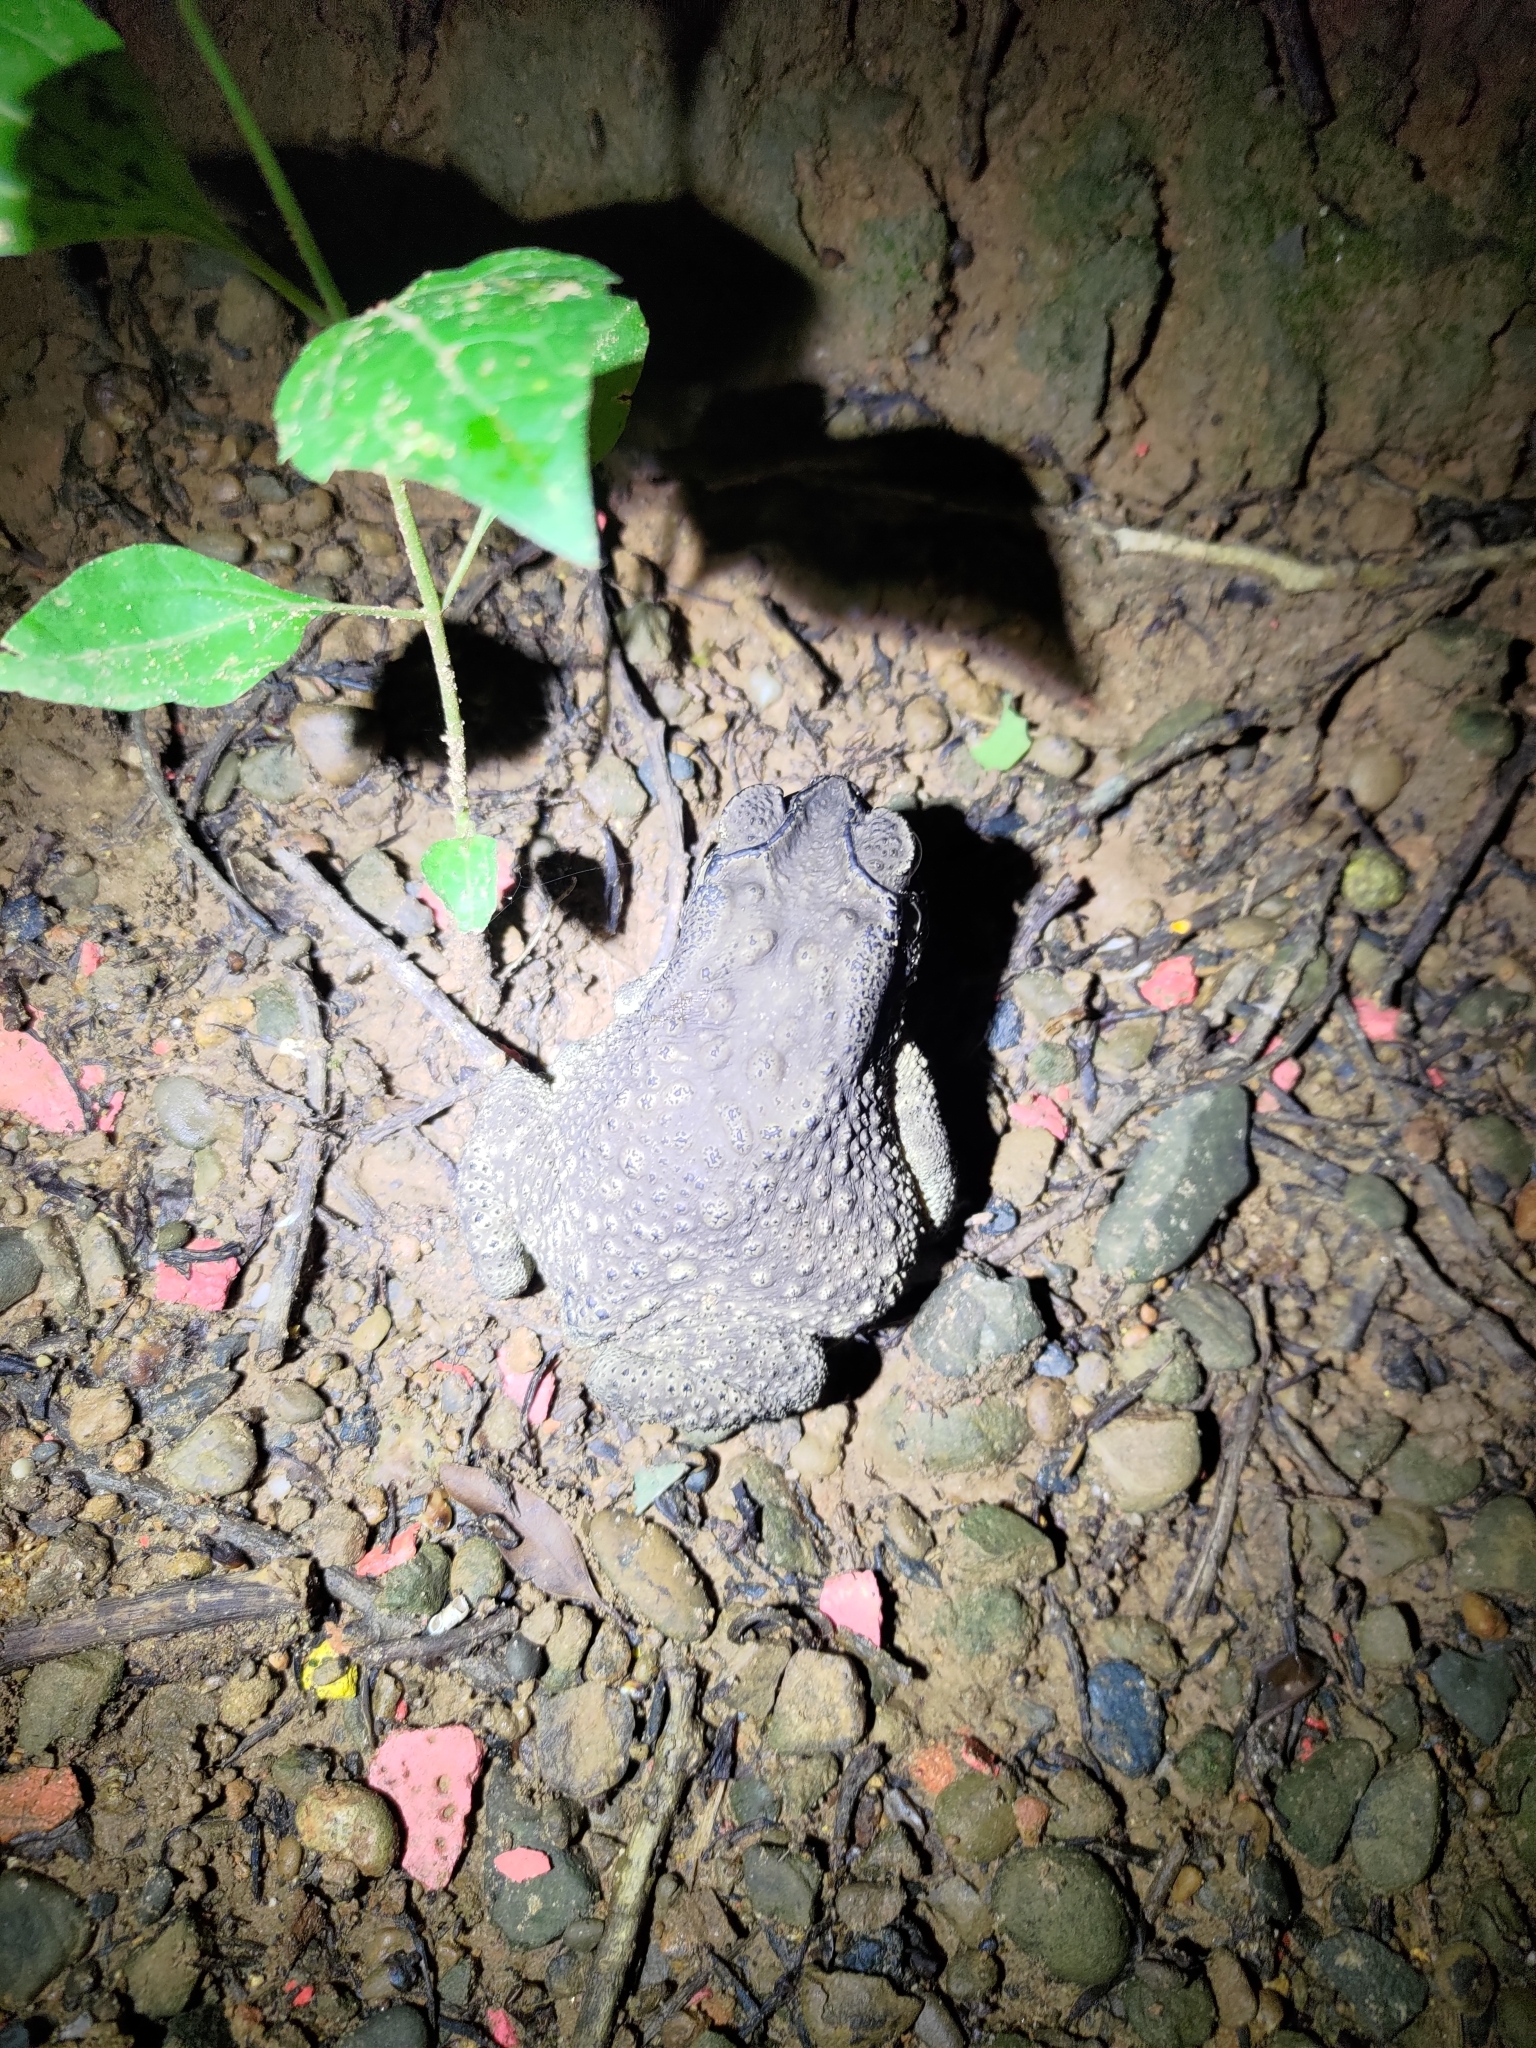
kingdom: Animalia
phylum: Chordata
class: Amphibia
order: Anura
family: Bufonidae
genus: Duttaphrynus
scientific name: Duttaphrynus melanostictus
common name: Common sunda toad
